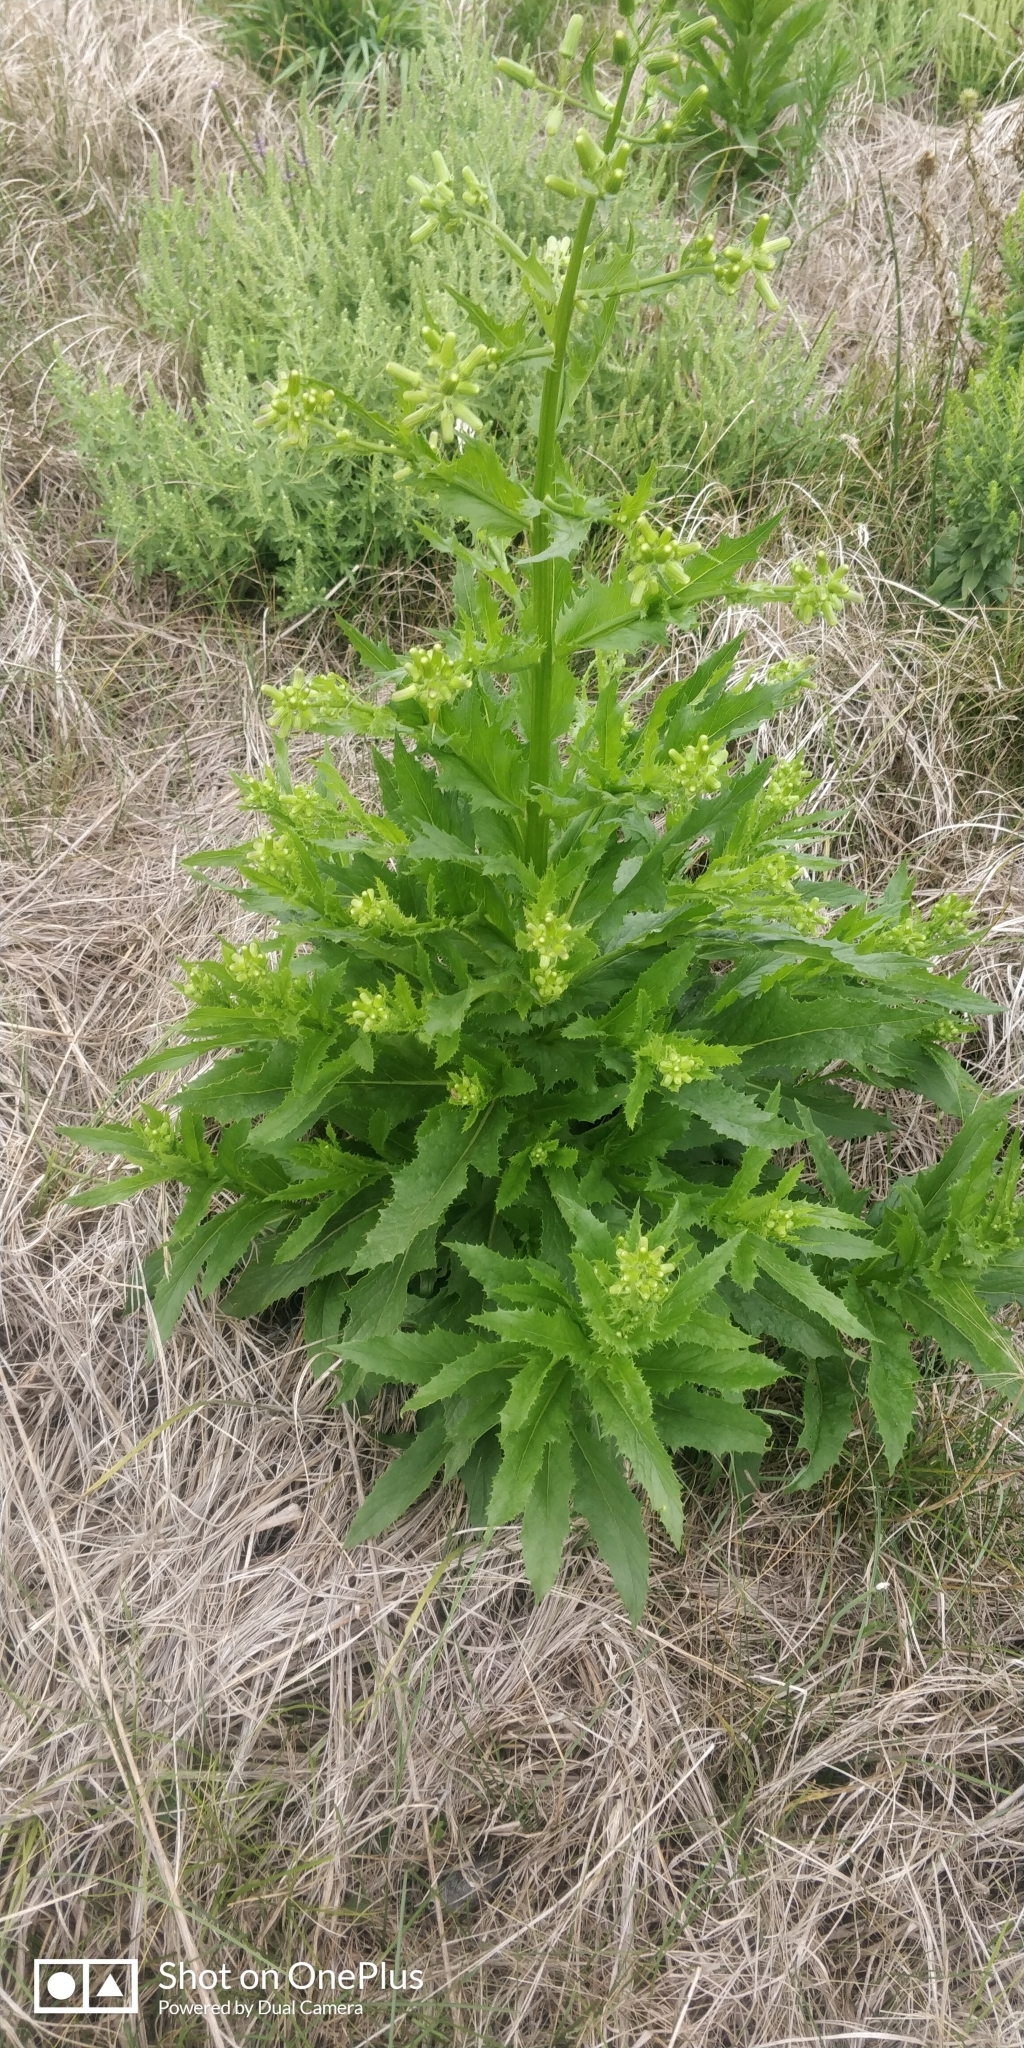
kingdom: Plantae
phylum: Tracheophyta
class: Magnoliopsida
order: Asterales
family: Asteraceae
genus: Erechtites
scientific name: Erechtites hieraciifolius
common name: American burnweed
